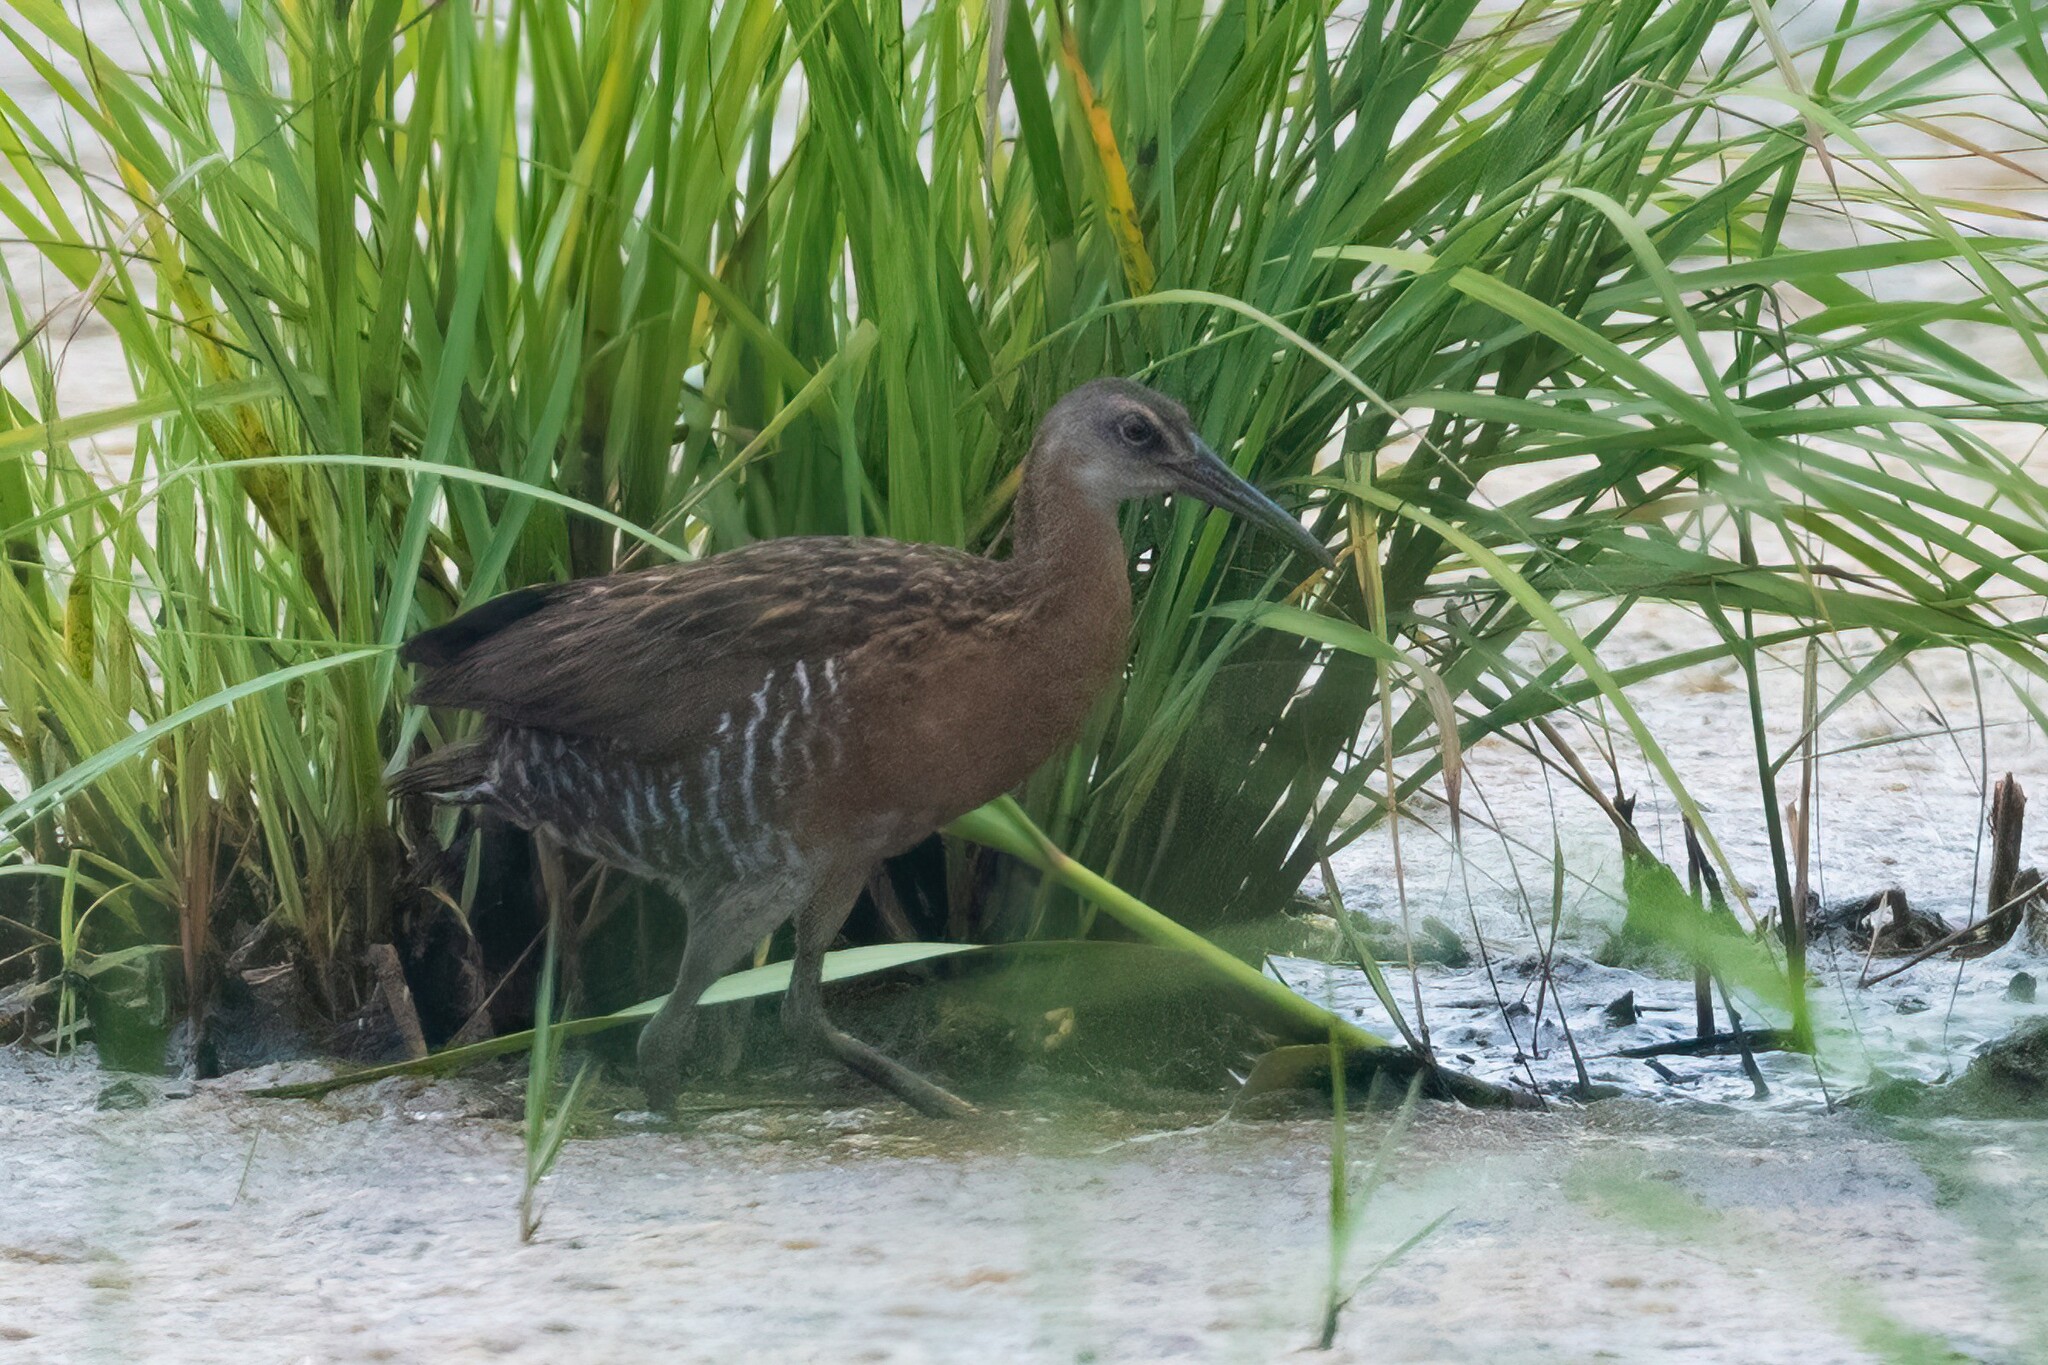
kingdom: Animalia
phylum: Chordata
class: Aves
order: Gruiformes
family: Rallidae
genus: Rallus
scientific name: Rallus elegans
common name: King rail
